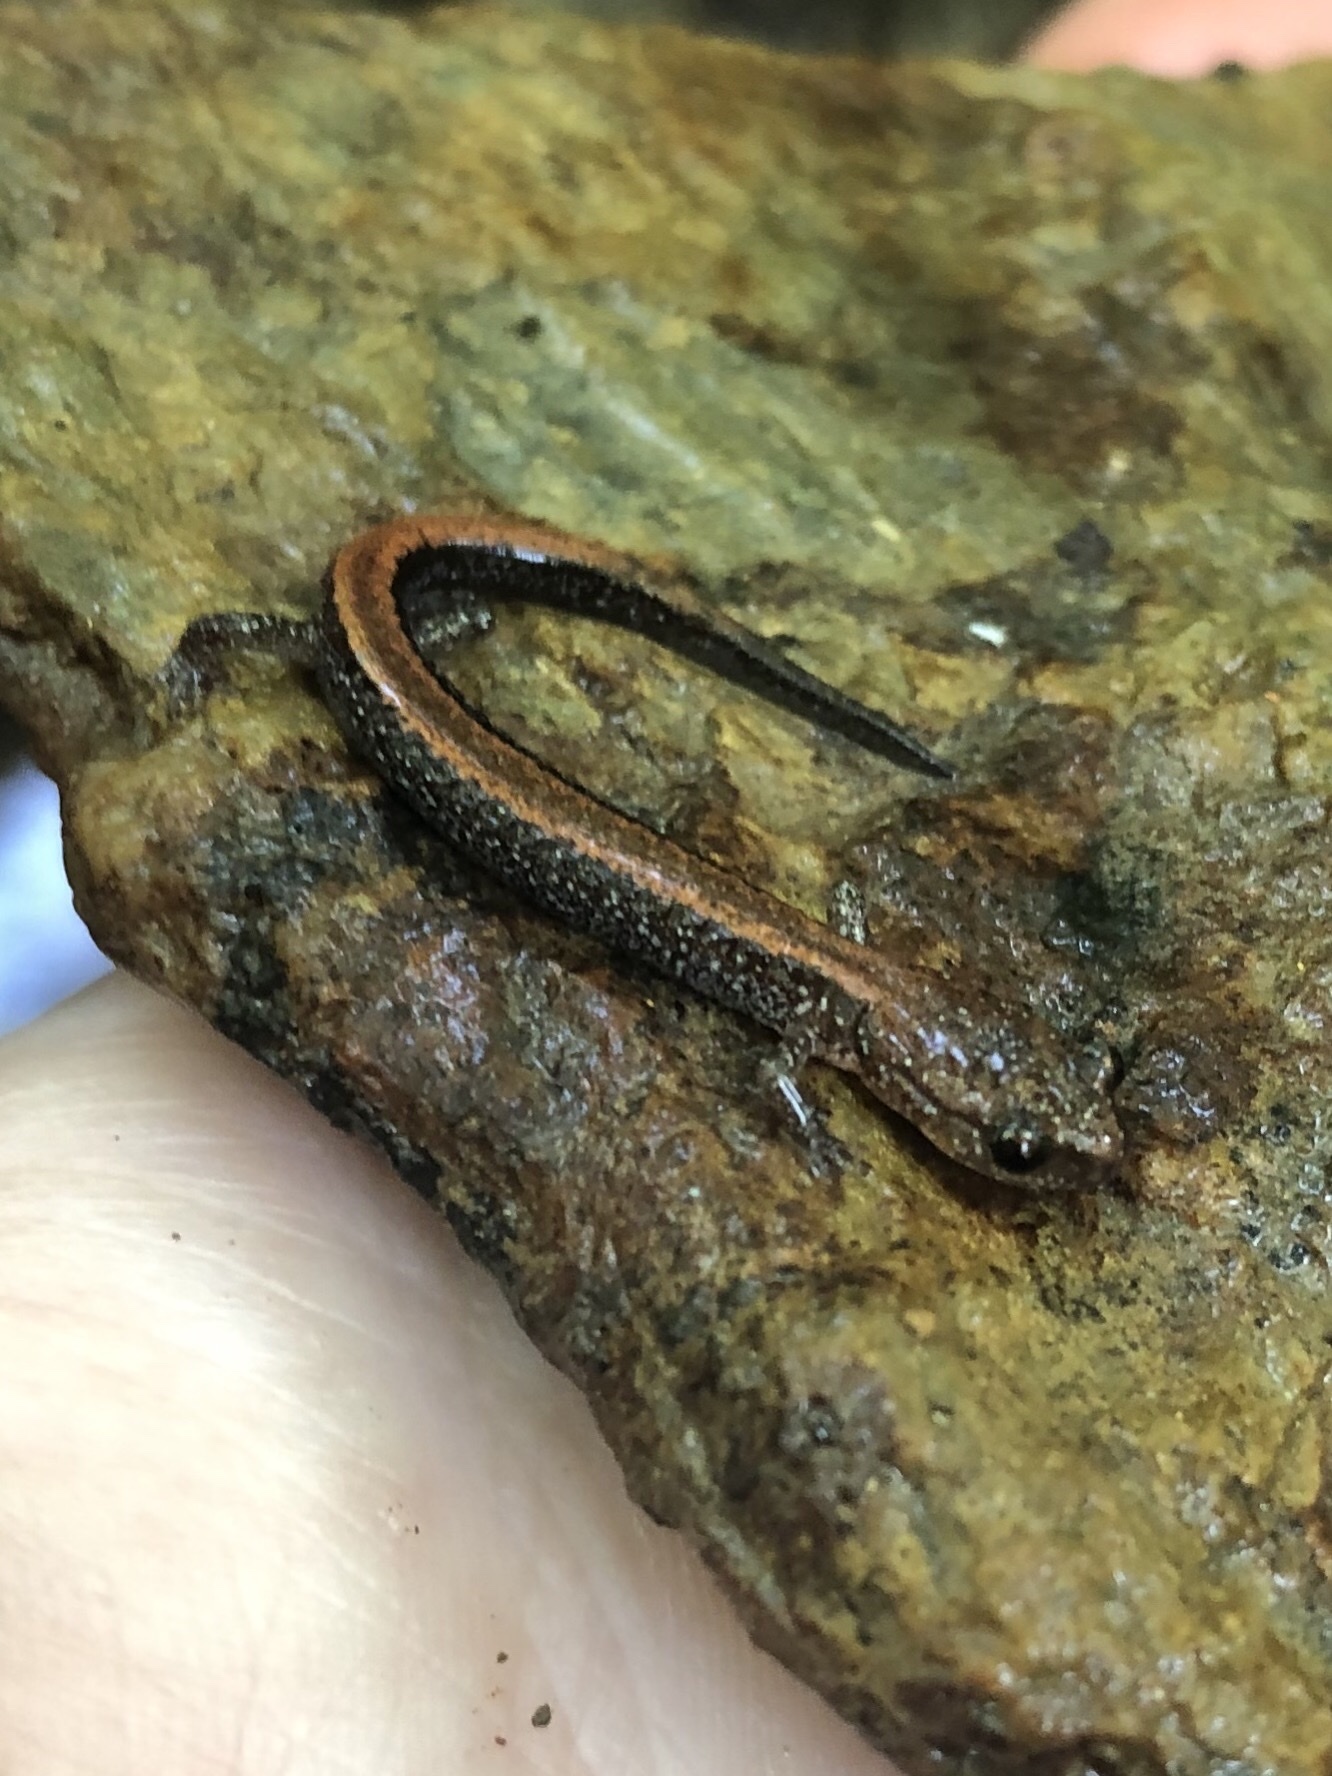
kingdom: Animalia
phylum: Chordata
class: Amphibia
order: Caudata
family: Plethodontidae
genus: Plethodon
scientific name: Plethodon cinereus
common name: Redback salamander
